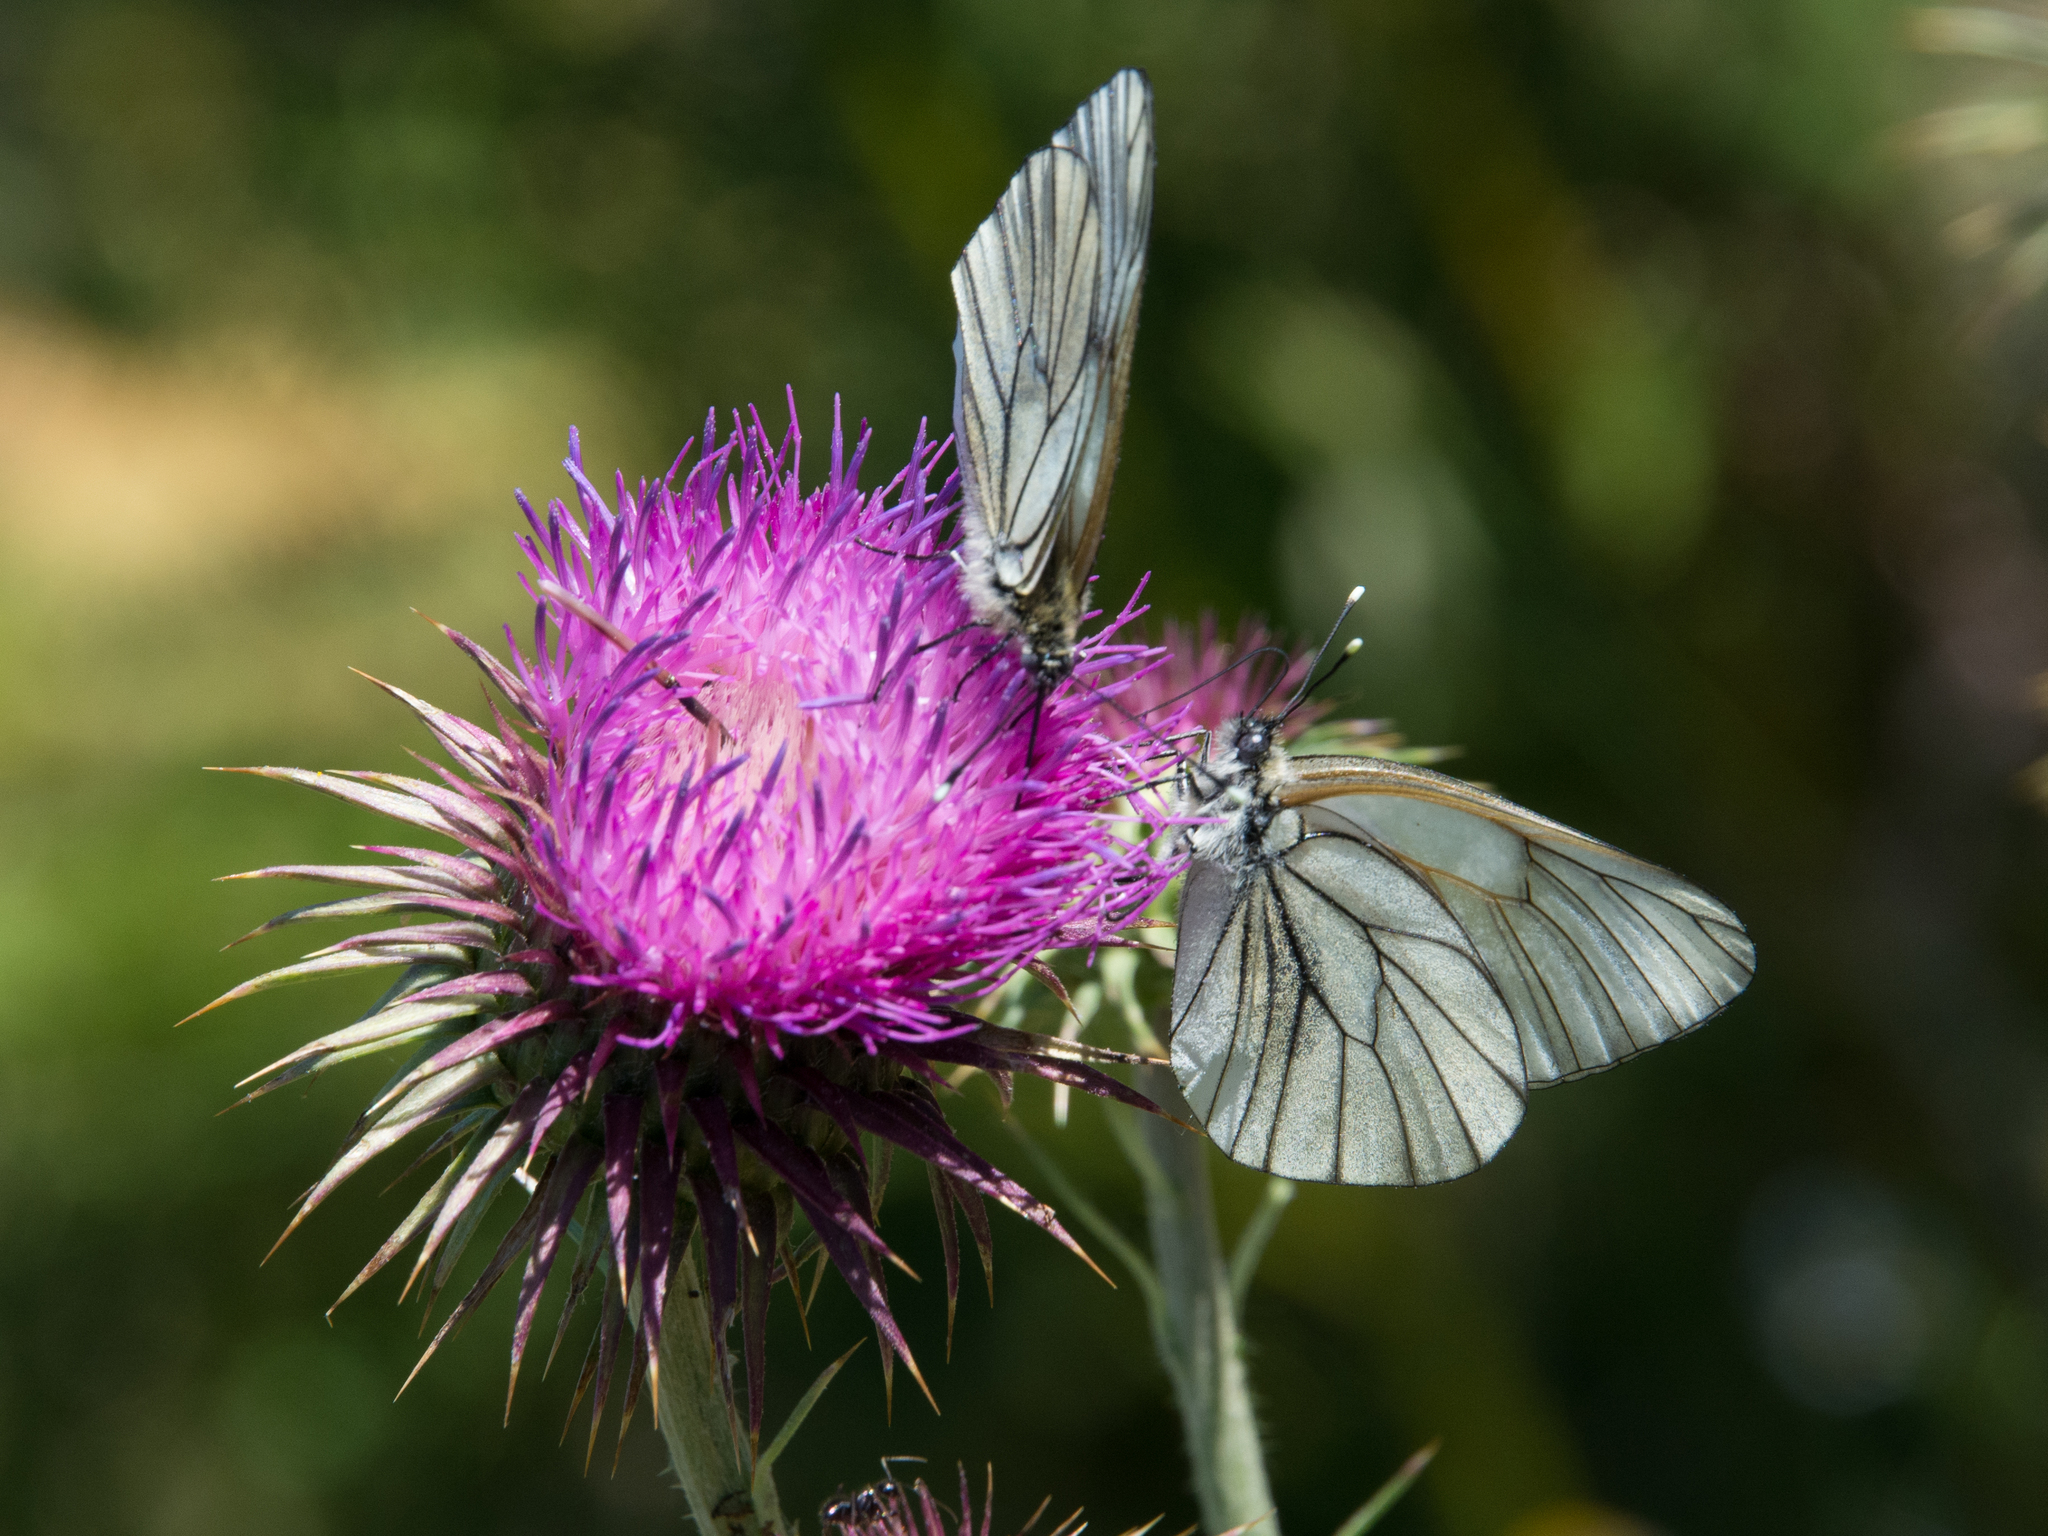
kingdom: Animalia
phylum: Arthropoda
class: Insecta
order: Lepidoptera
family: Pieridae
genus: Aporia
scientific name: Aporia crataegi
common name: Black-veined white
